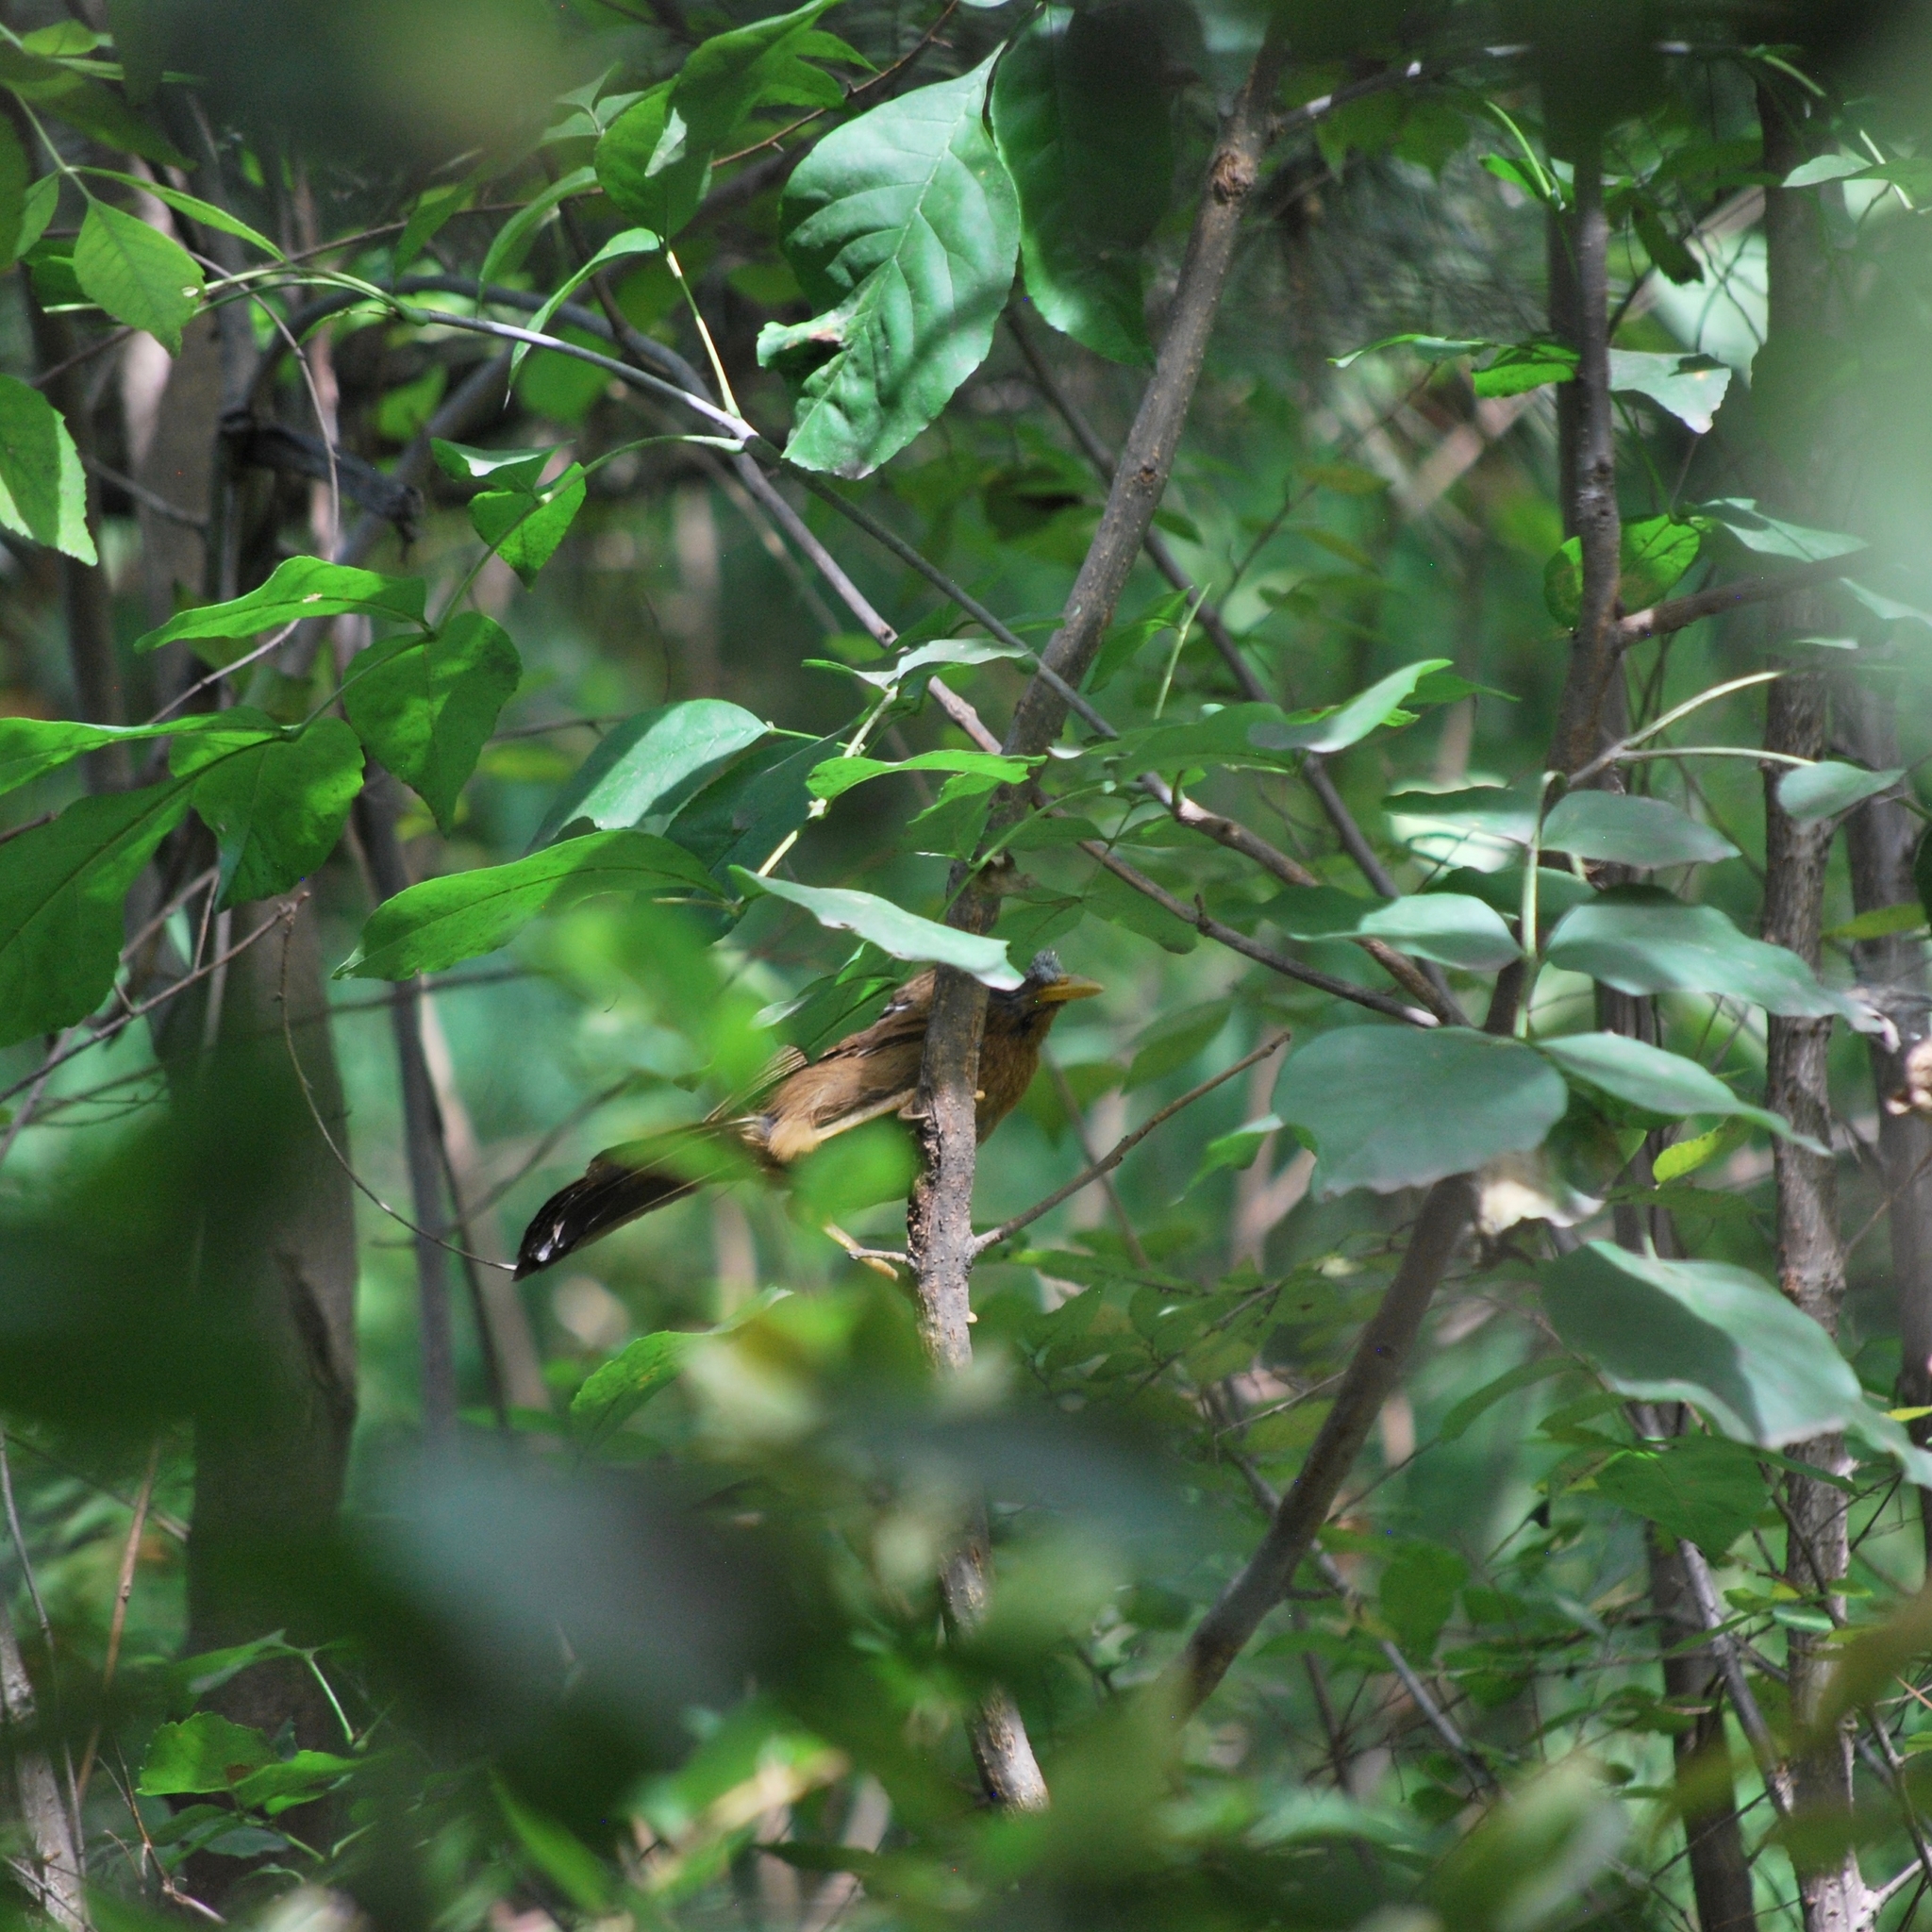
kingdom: Animalia
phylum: Chordata
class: Aves
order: Passeriformes
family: Leiothrichidae
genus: Garrulax
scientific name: Garrulax canorus
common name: Chinese hwamei
